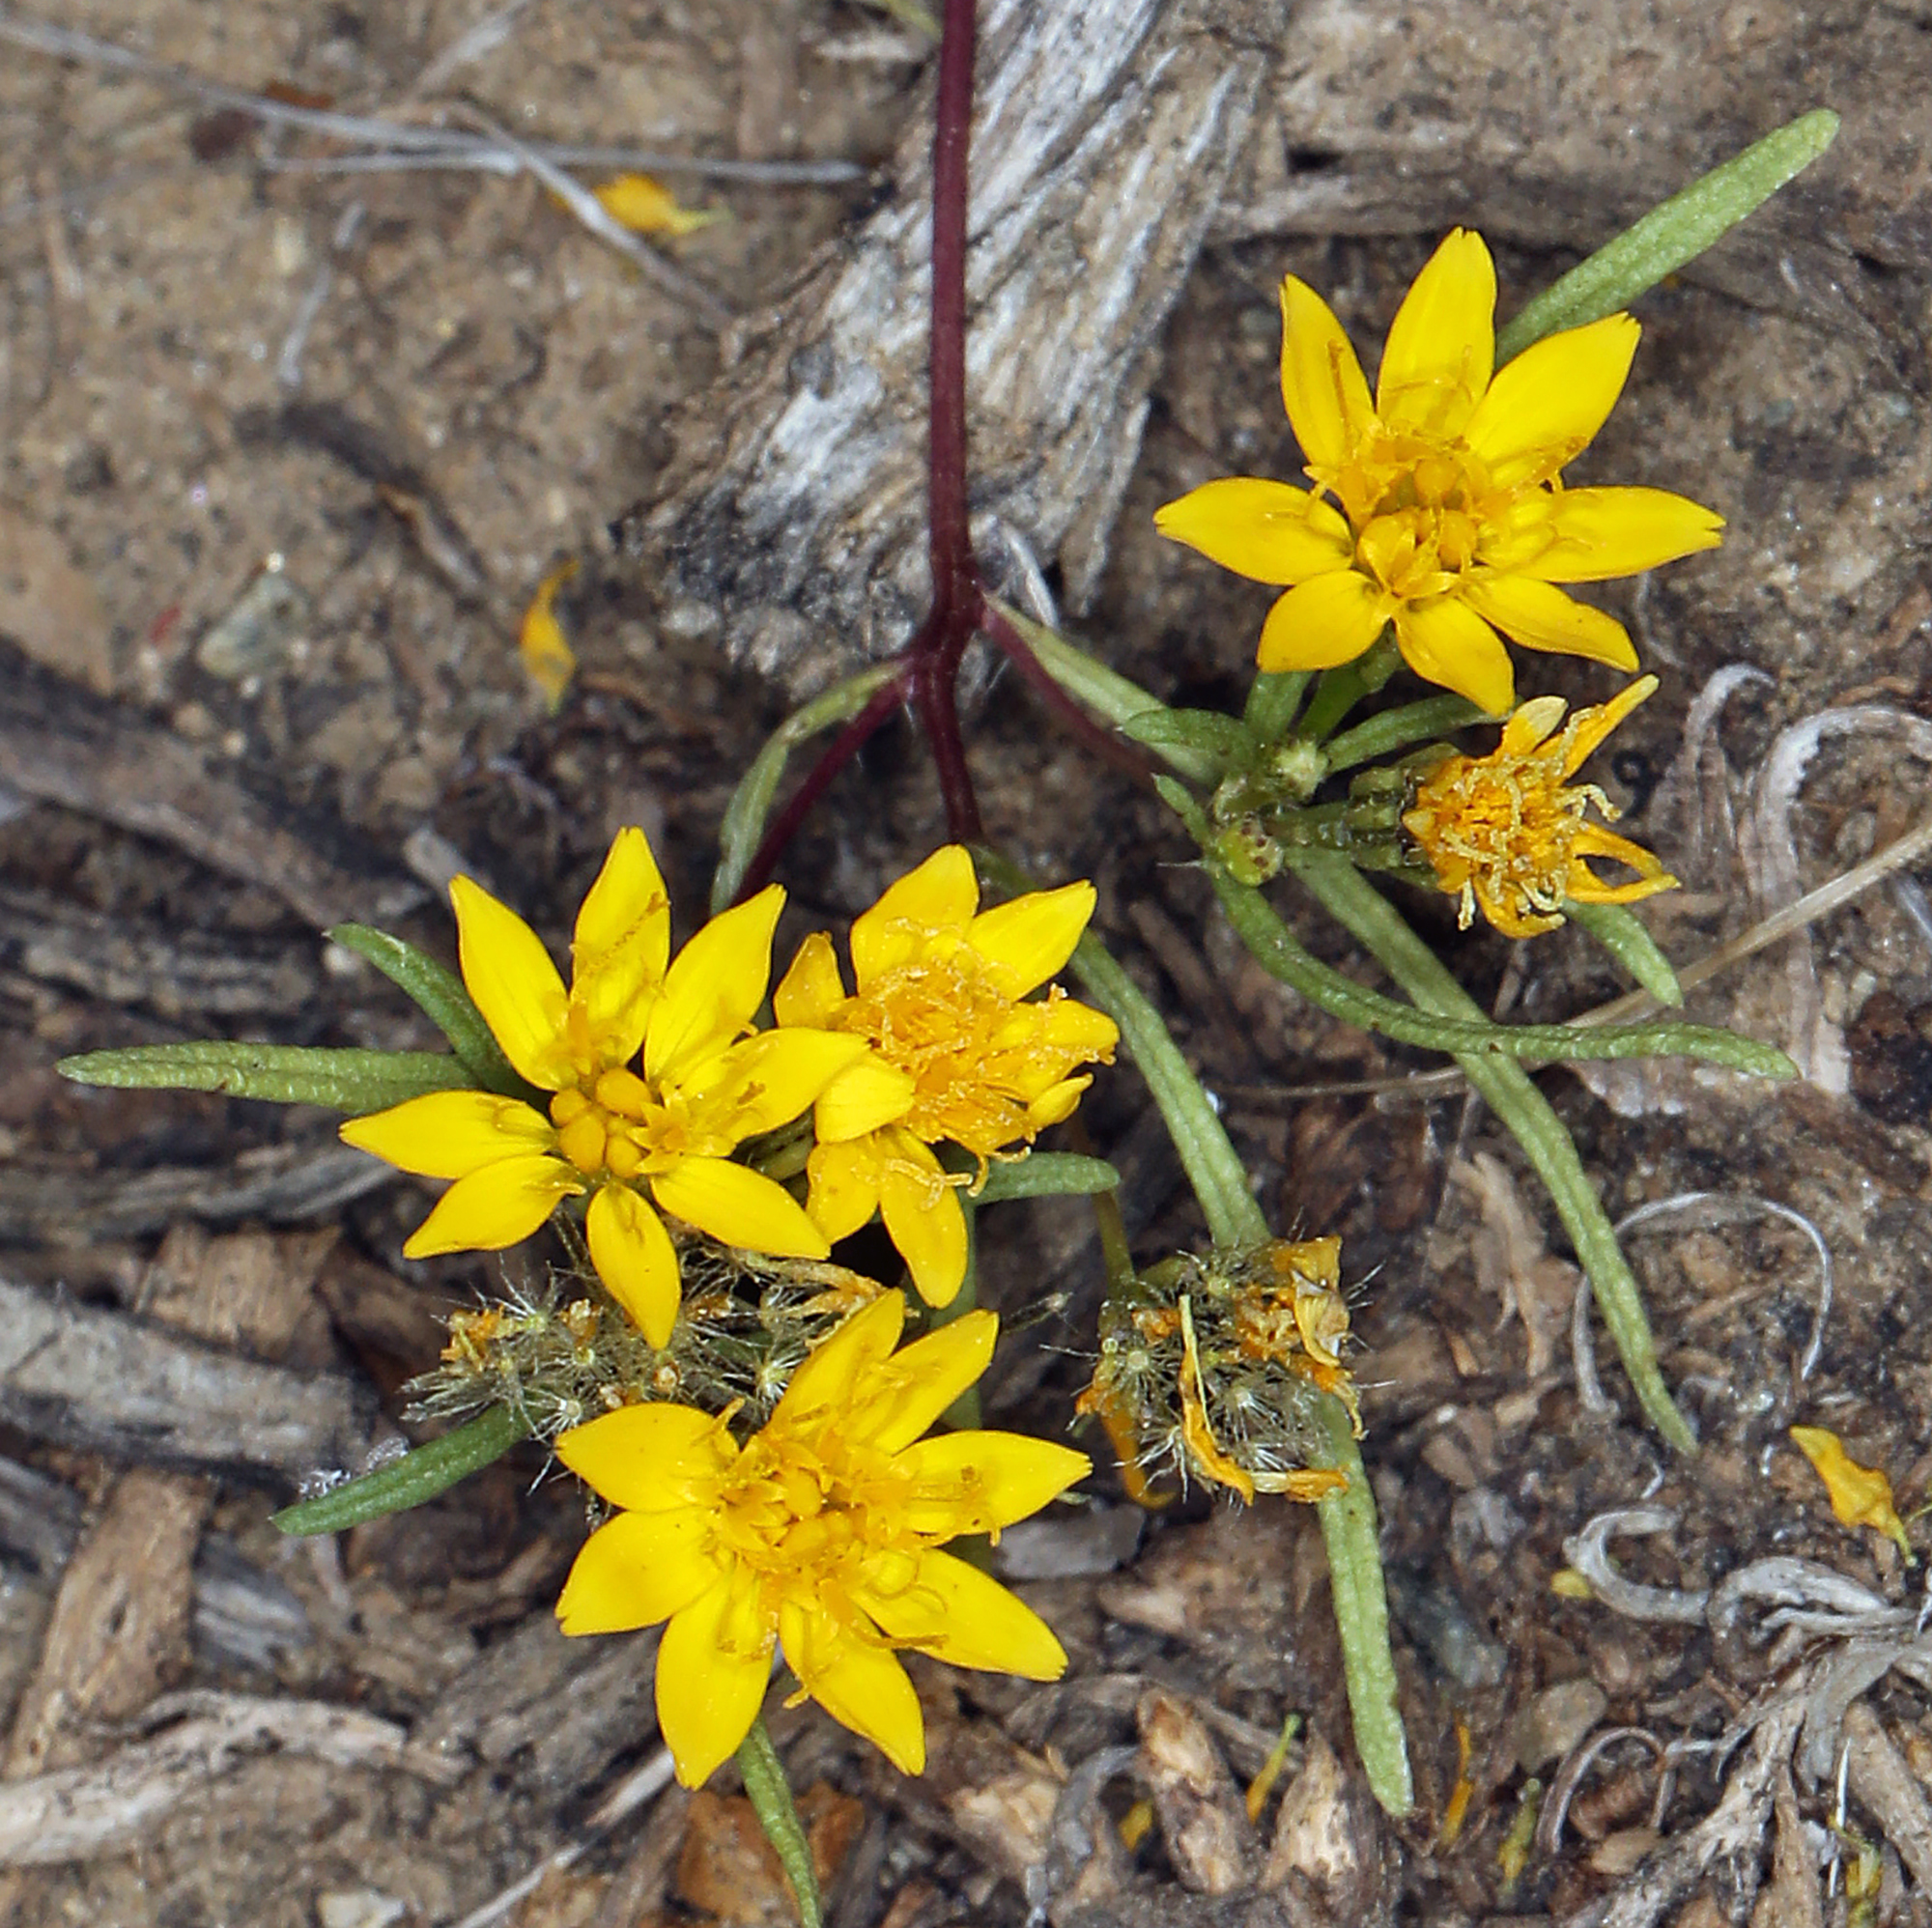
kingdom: Plantae
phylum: Tracheophyta
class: Magnoliopsida
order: Asterales
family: Asteraceae
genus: Pectis
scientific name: Pectis papposa
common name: Many-bristle chinchweed
